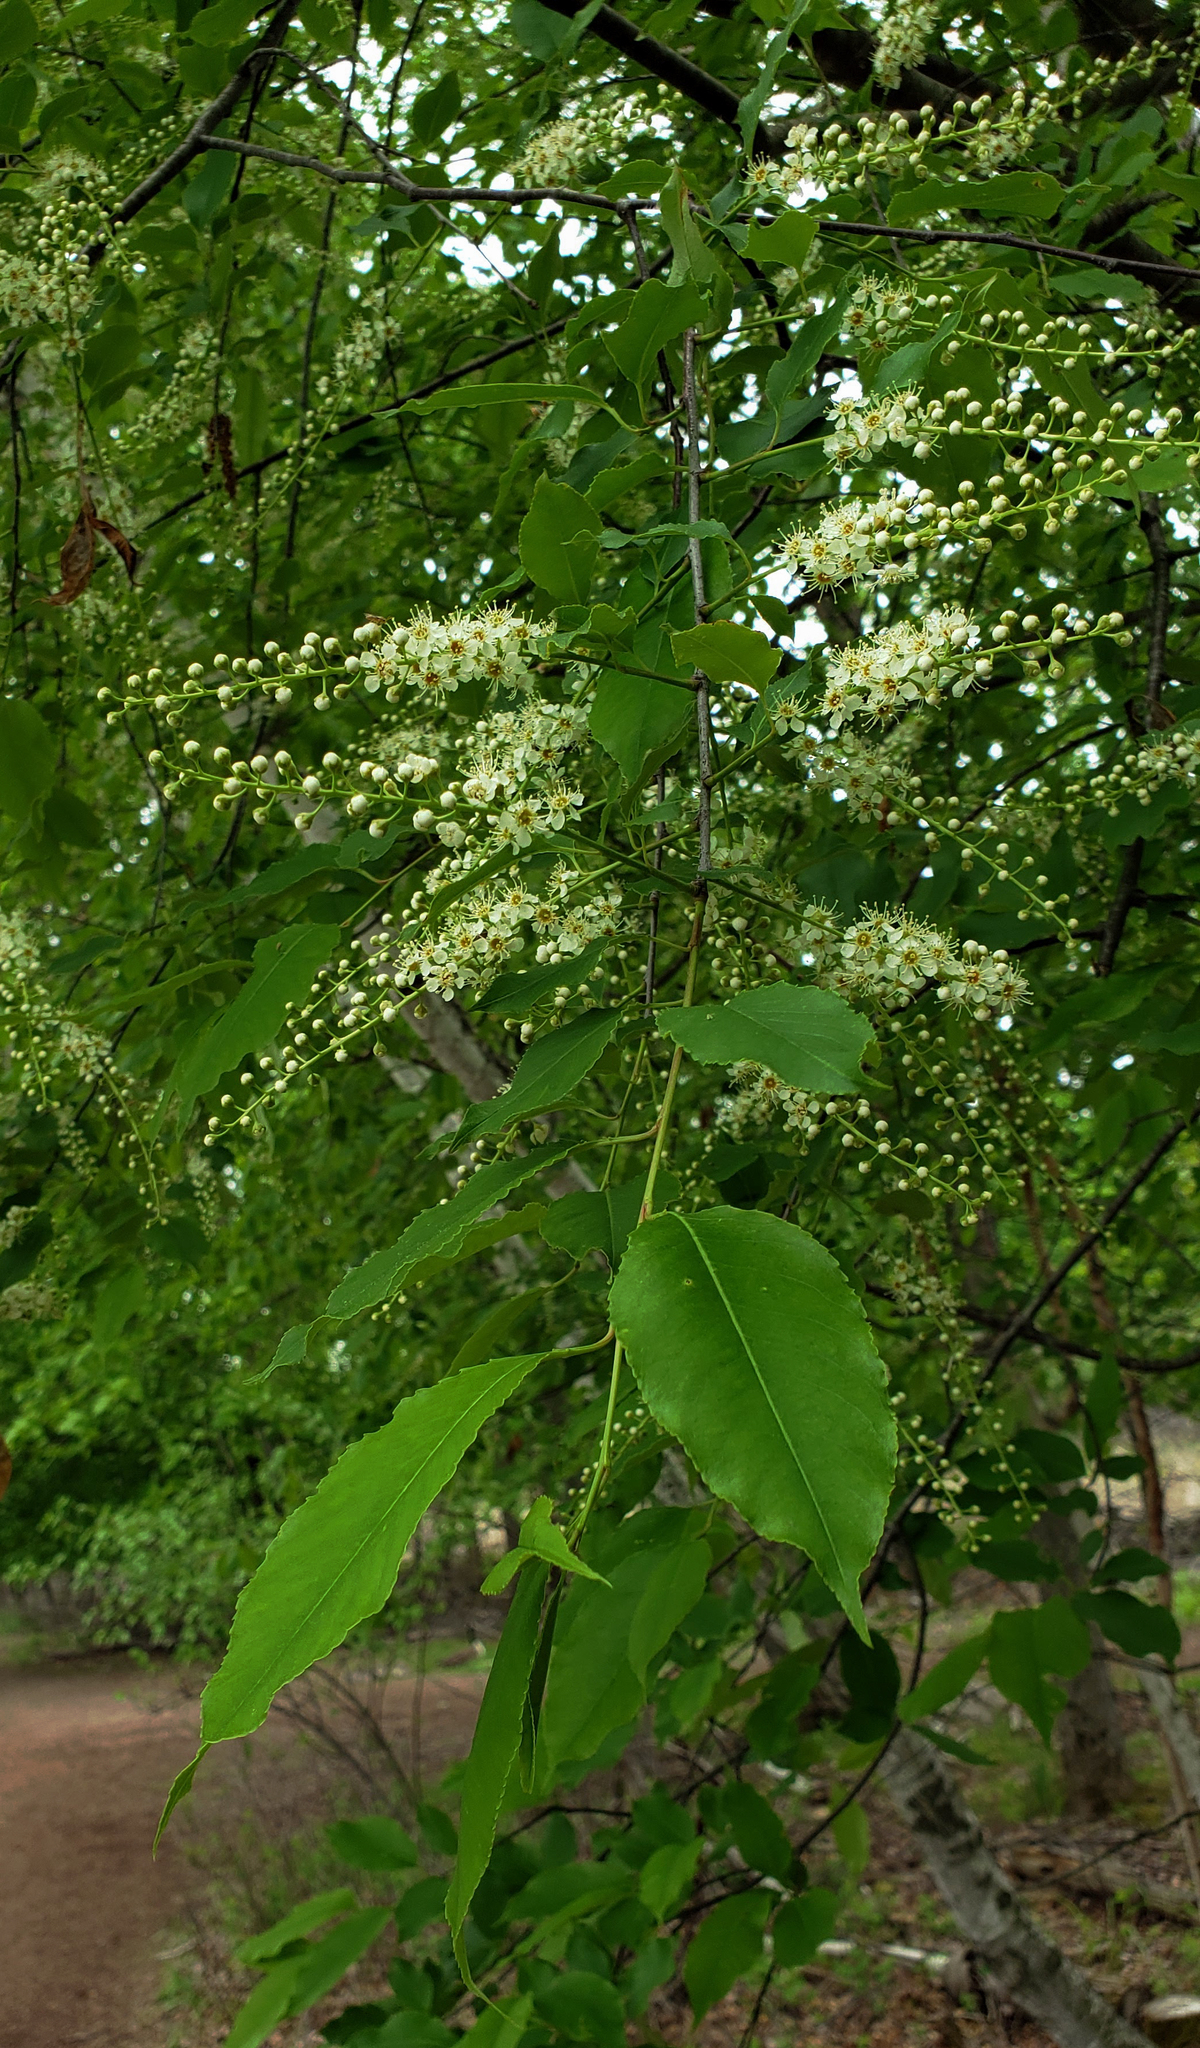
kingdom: Plantae
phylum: Tracheophyta
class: Magnoliopsida
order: Rosales
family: Rosaceae
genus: Prunus
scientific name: Prunus serotina
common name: Black cherry
